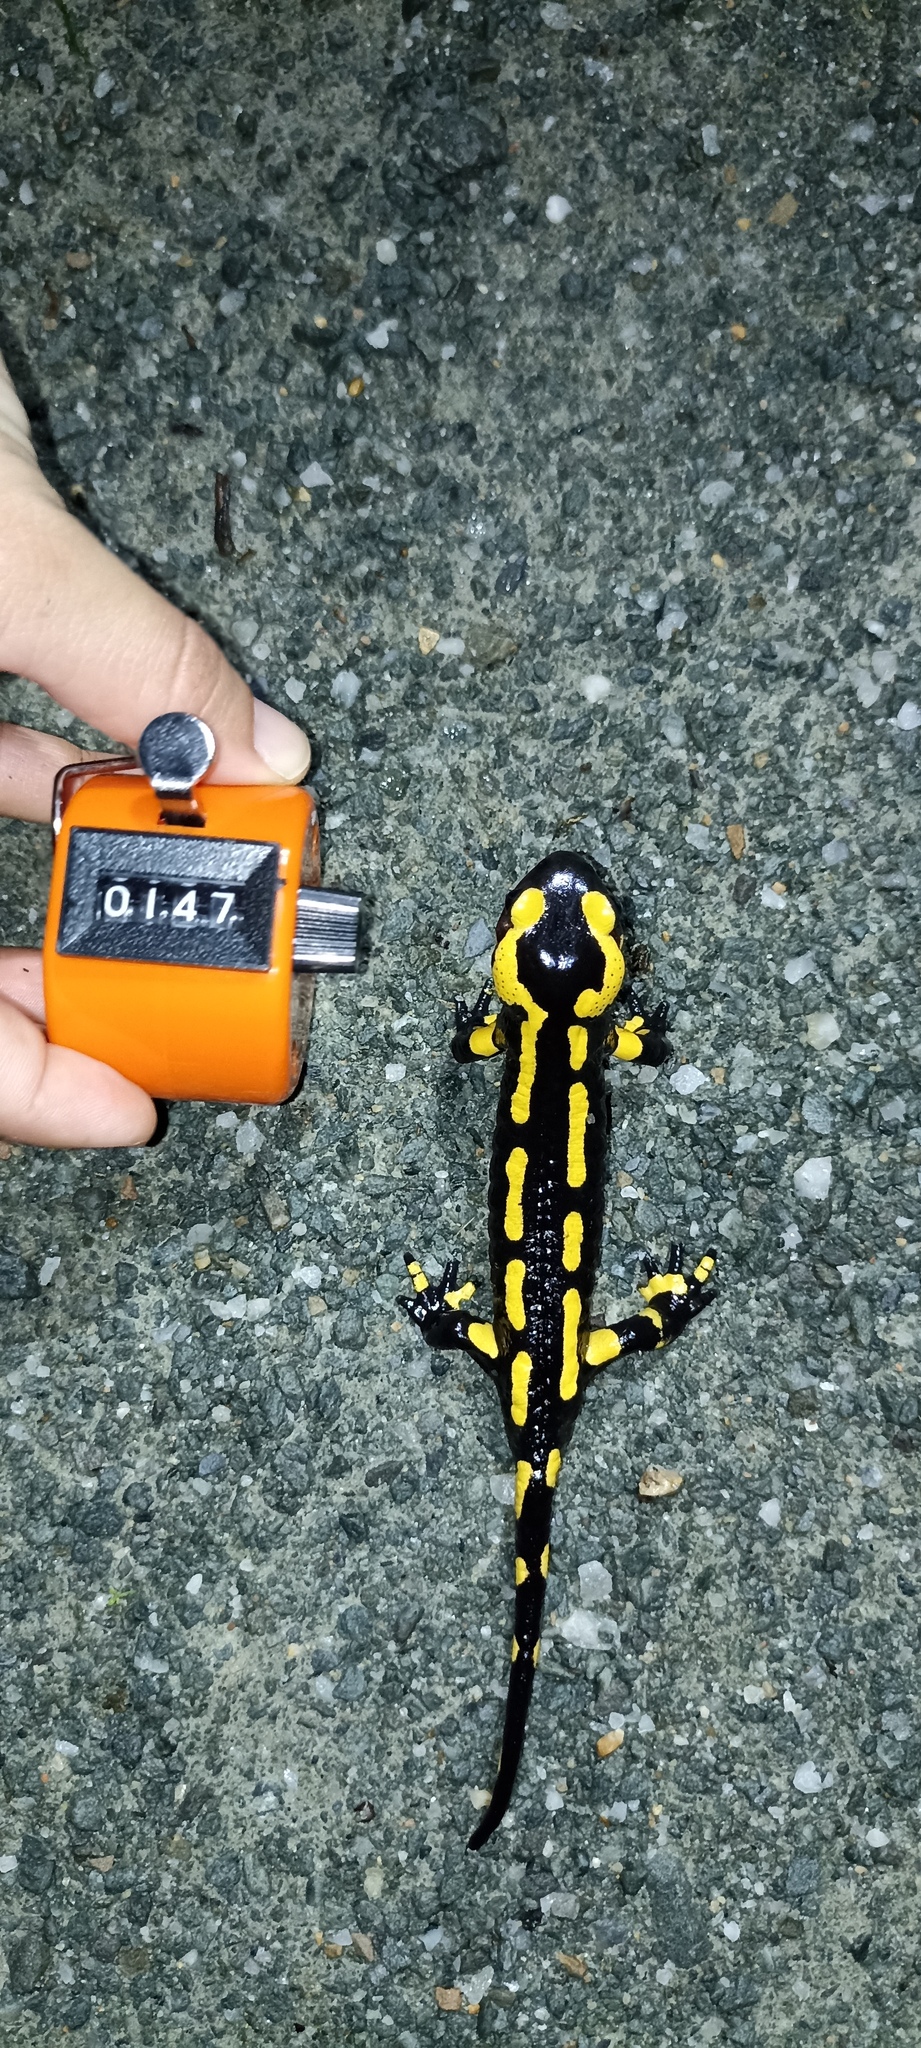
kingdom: Animalia
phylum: Chordata
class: Amphibia
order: Caudata
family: Salamandridae
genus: Salamandra
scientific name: Salamandra salamandra
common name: Fire salamander
